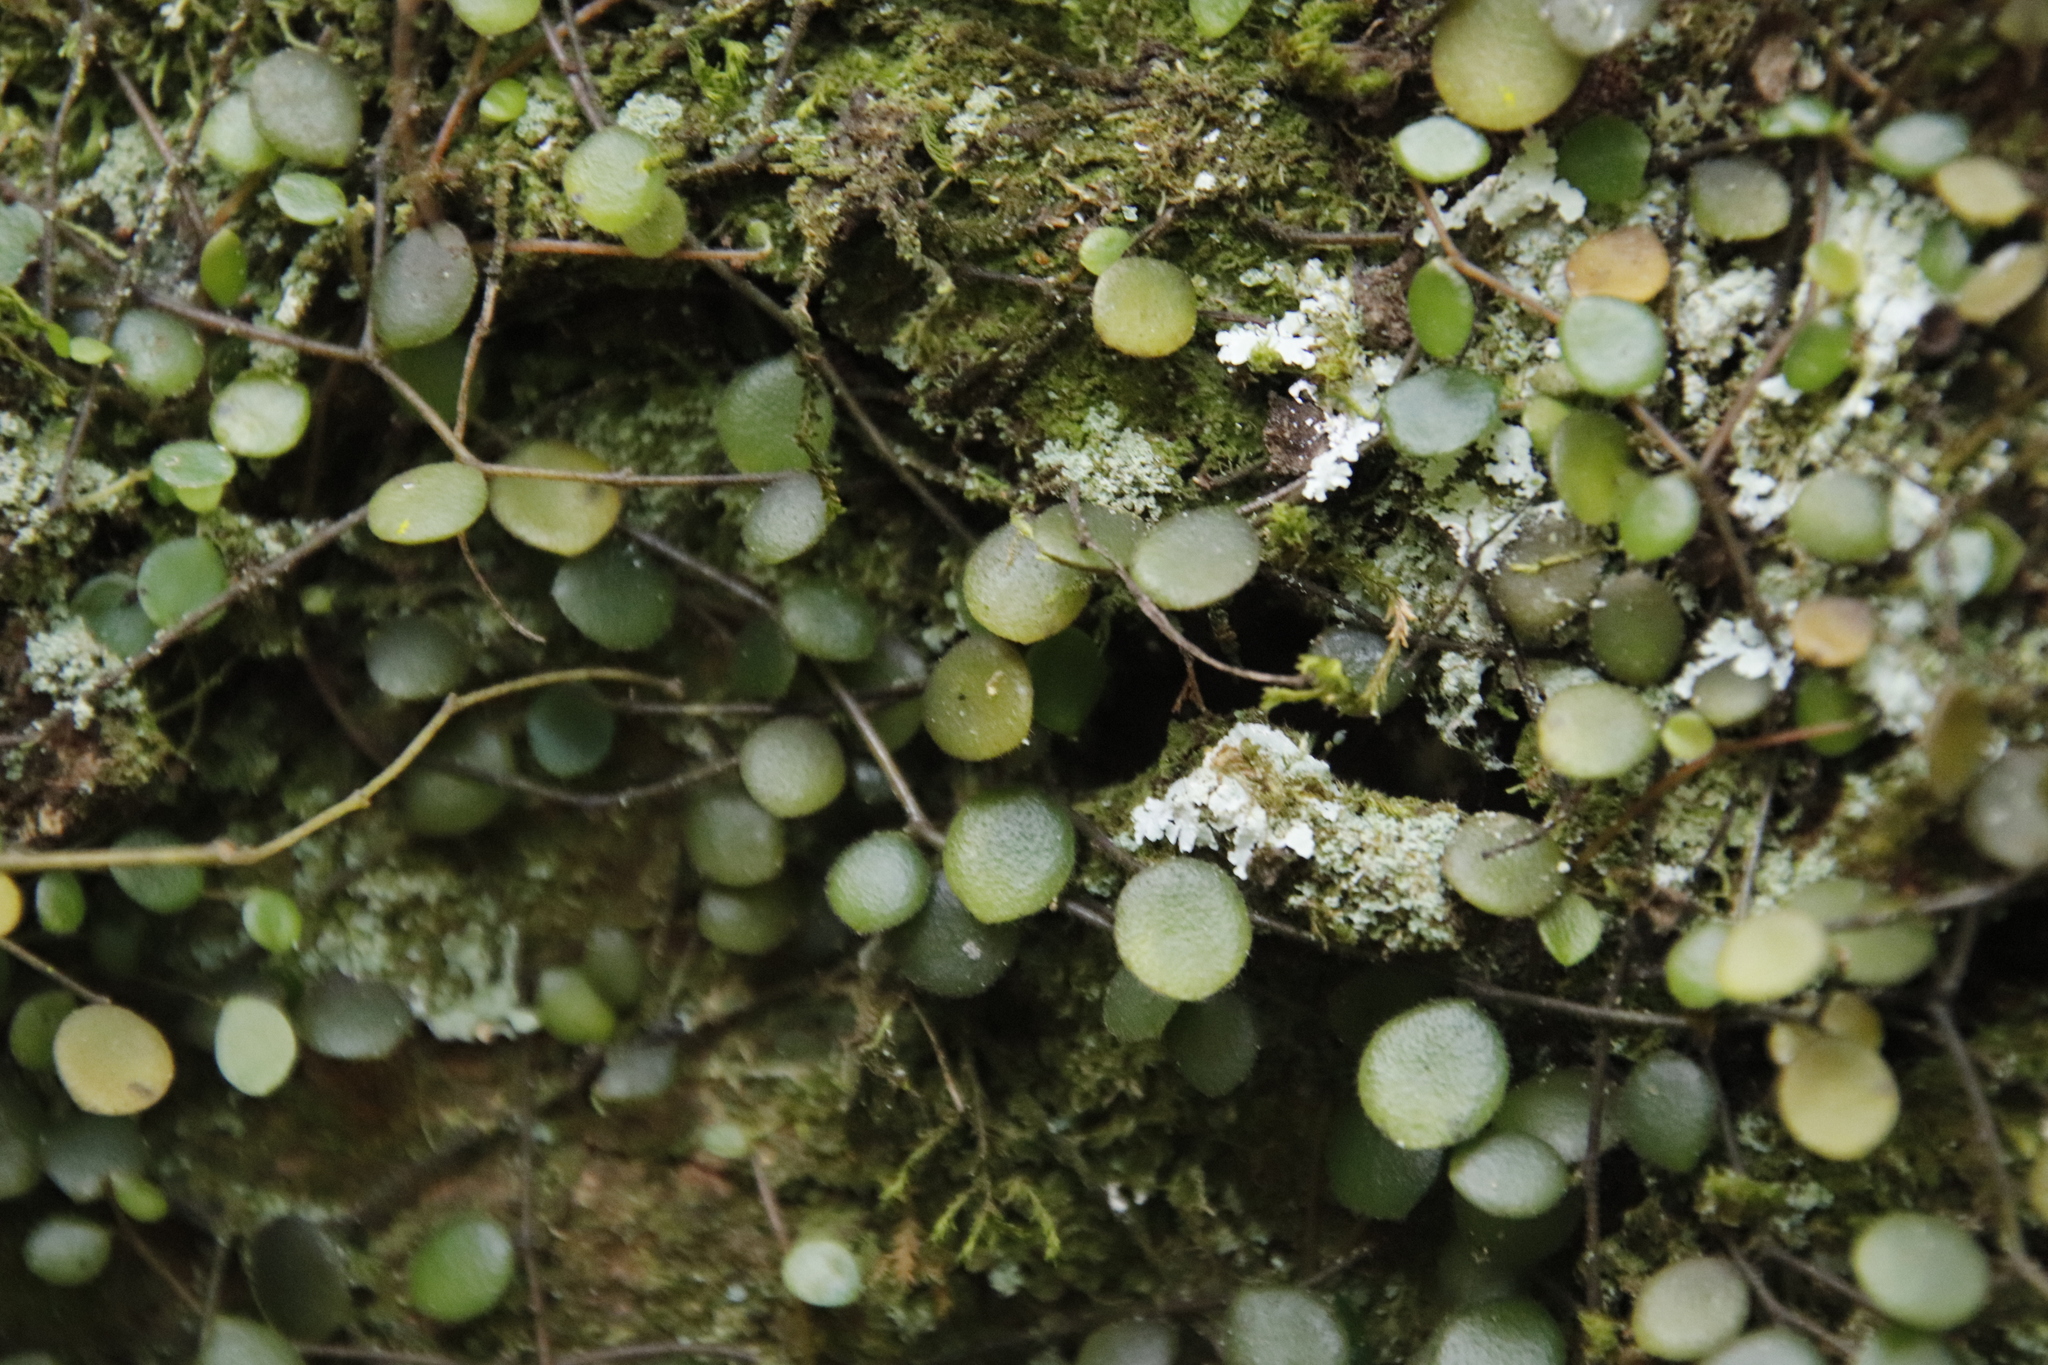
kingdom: Plantae
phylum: Tracheophyta
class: Magnoliopsida
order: Piperales
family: Piperaceae
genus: Peperomia
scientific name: Peperomia bangroana
